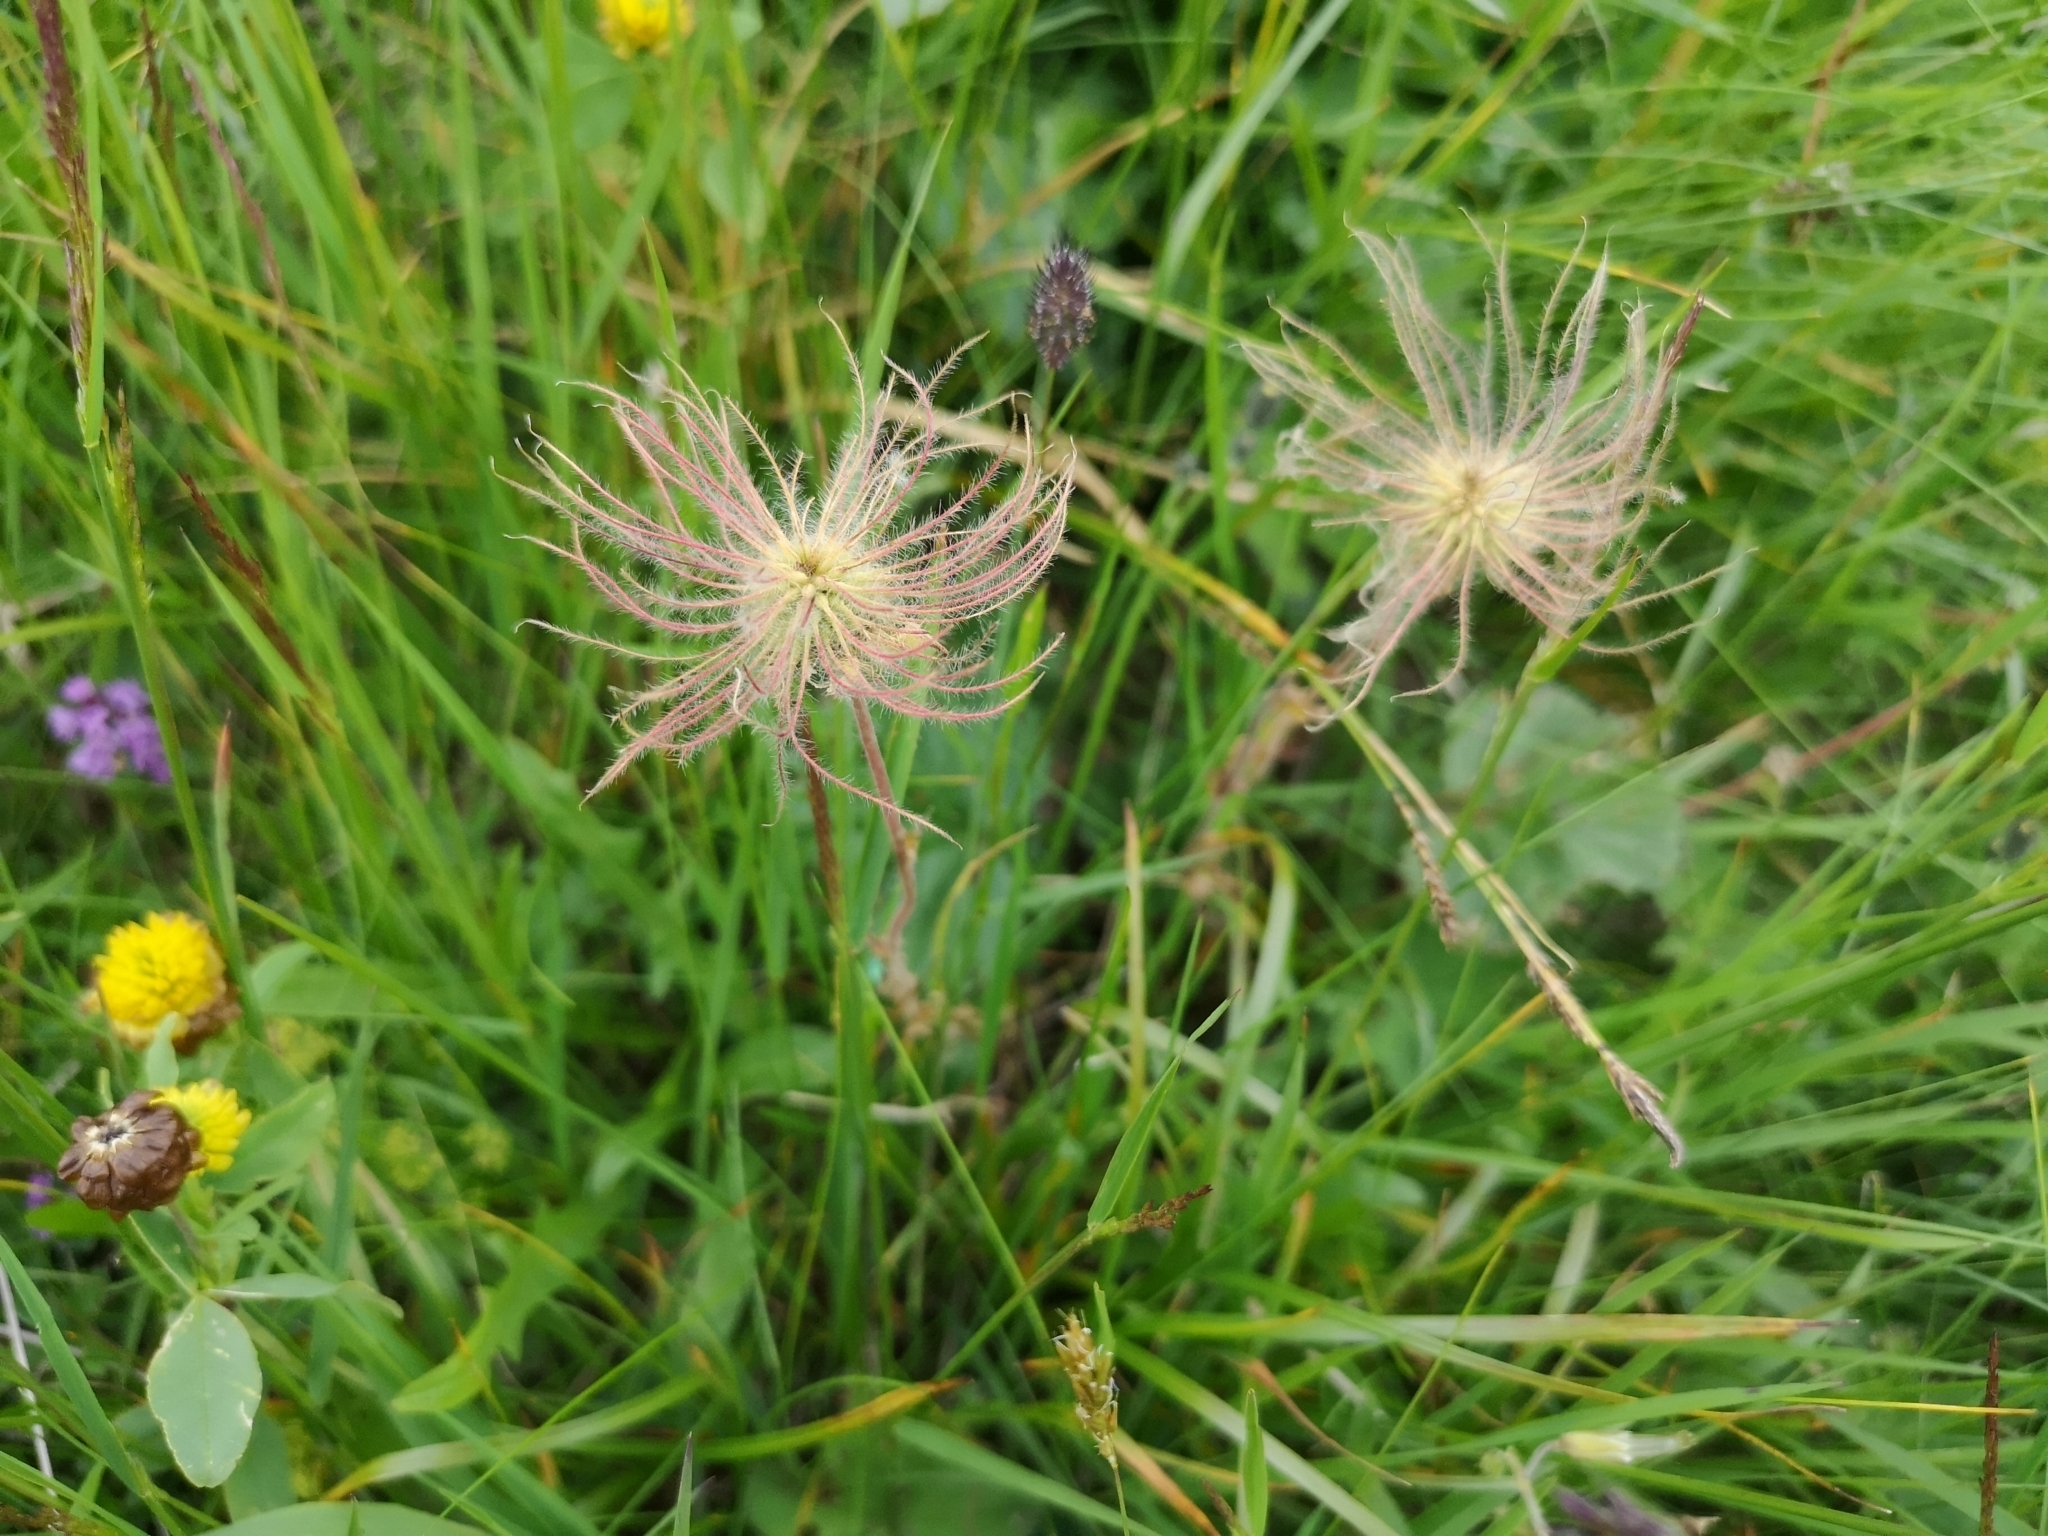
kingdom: Plantae
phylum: Tracheophyta
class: Magnoliopsida
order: Rosales
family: Rosaceae
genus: Geum
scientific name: Geum montanum
